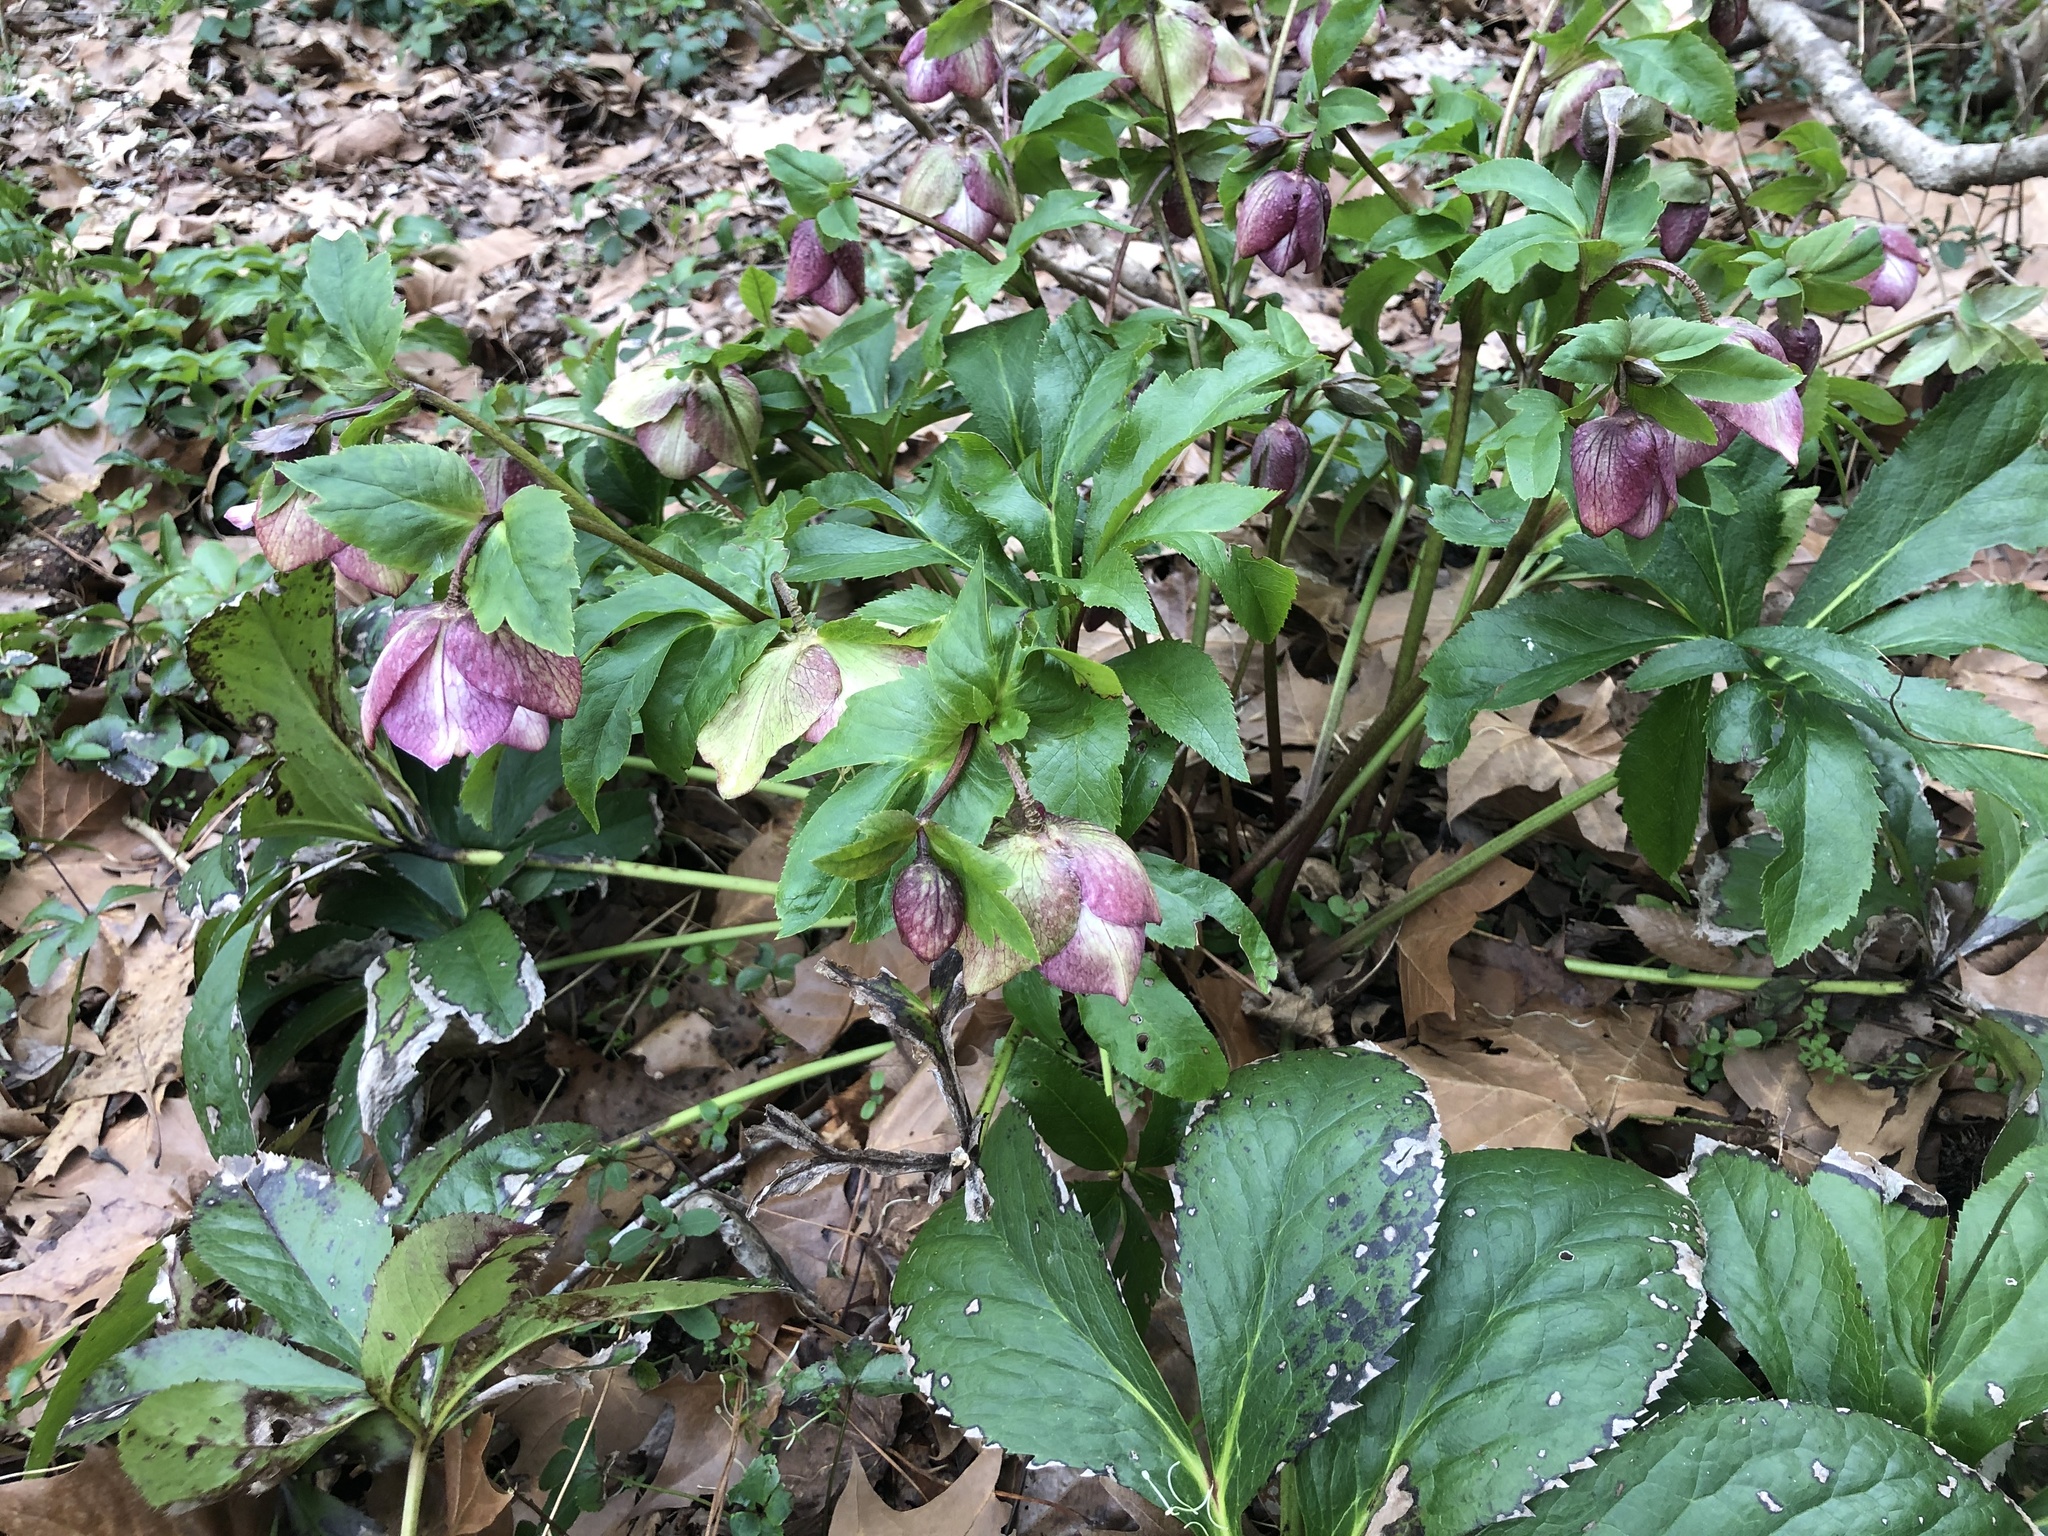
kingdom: Plantae
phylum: Tracheophyta
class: Magnoliopsida
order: Ranunculales
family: Ranunculaceae
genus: Helleborus
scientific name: Helleborus orientalis
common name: Lenten-rose
